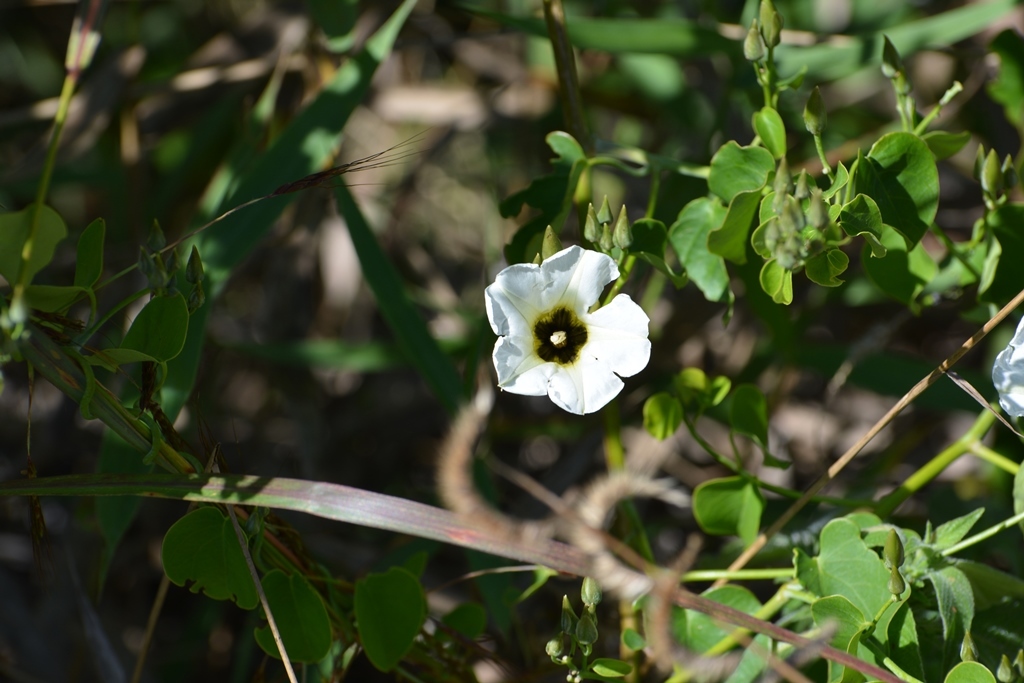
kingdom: Plantae
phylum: Tracheophyta
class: Magnoliopsida
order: Solanales
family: Convolvulaceae
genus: Ipomoea
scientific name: Ipomoea corymbosa
